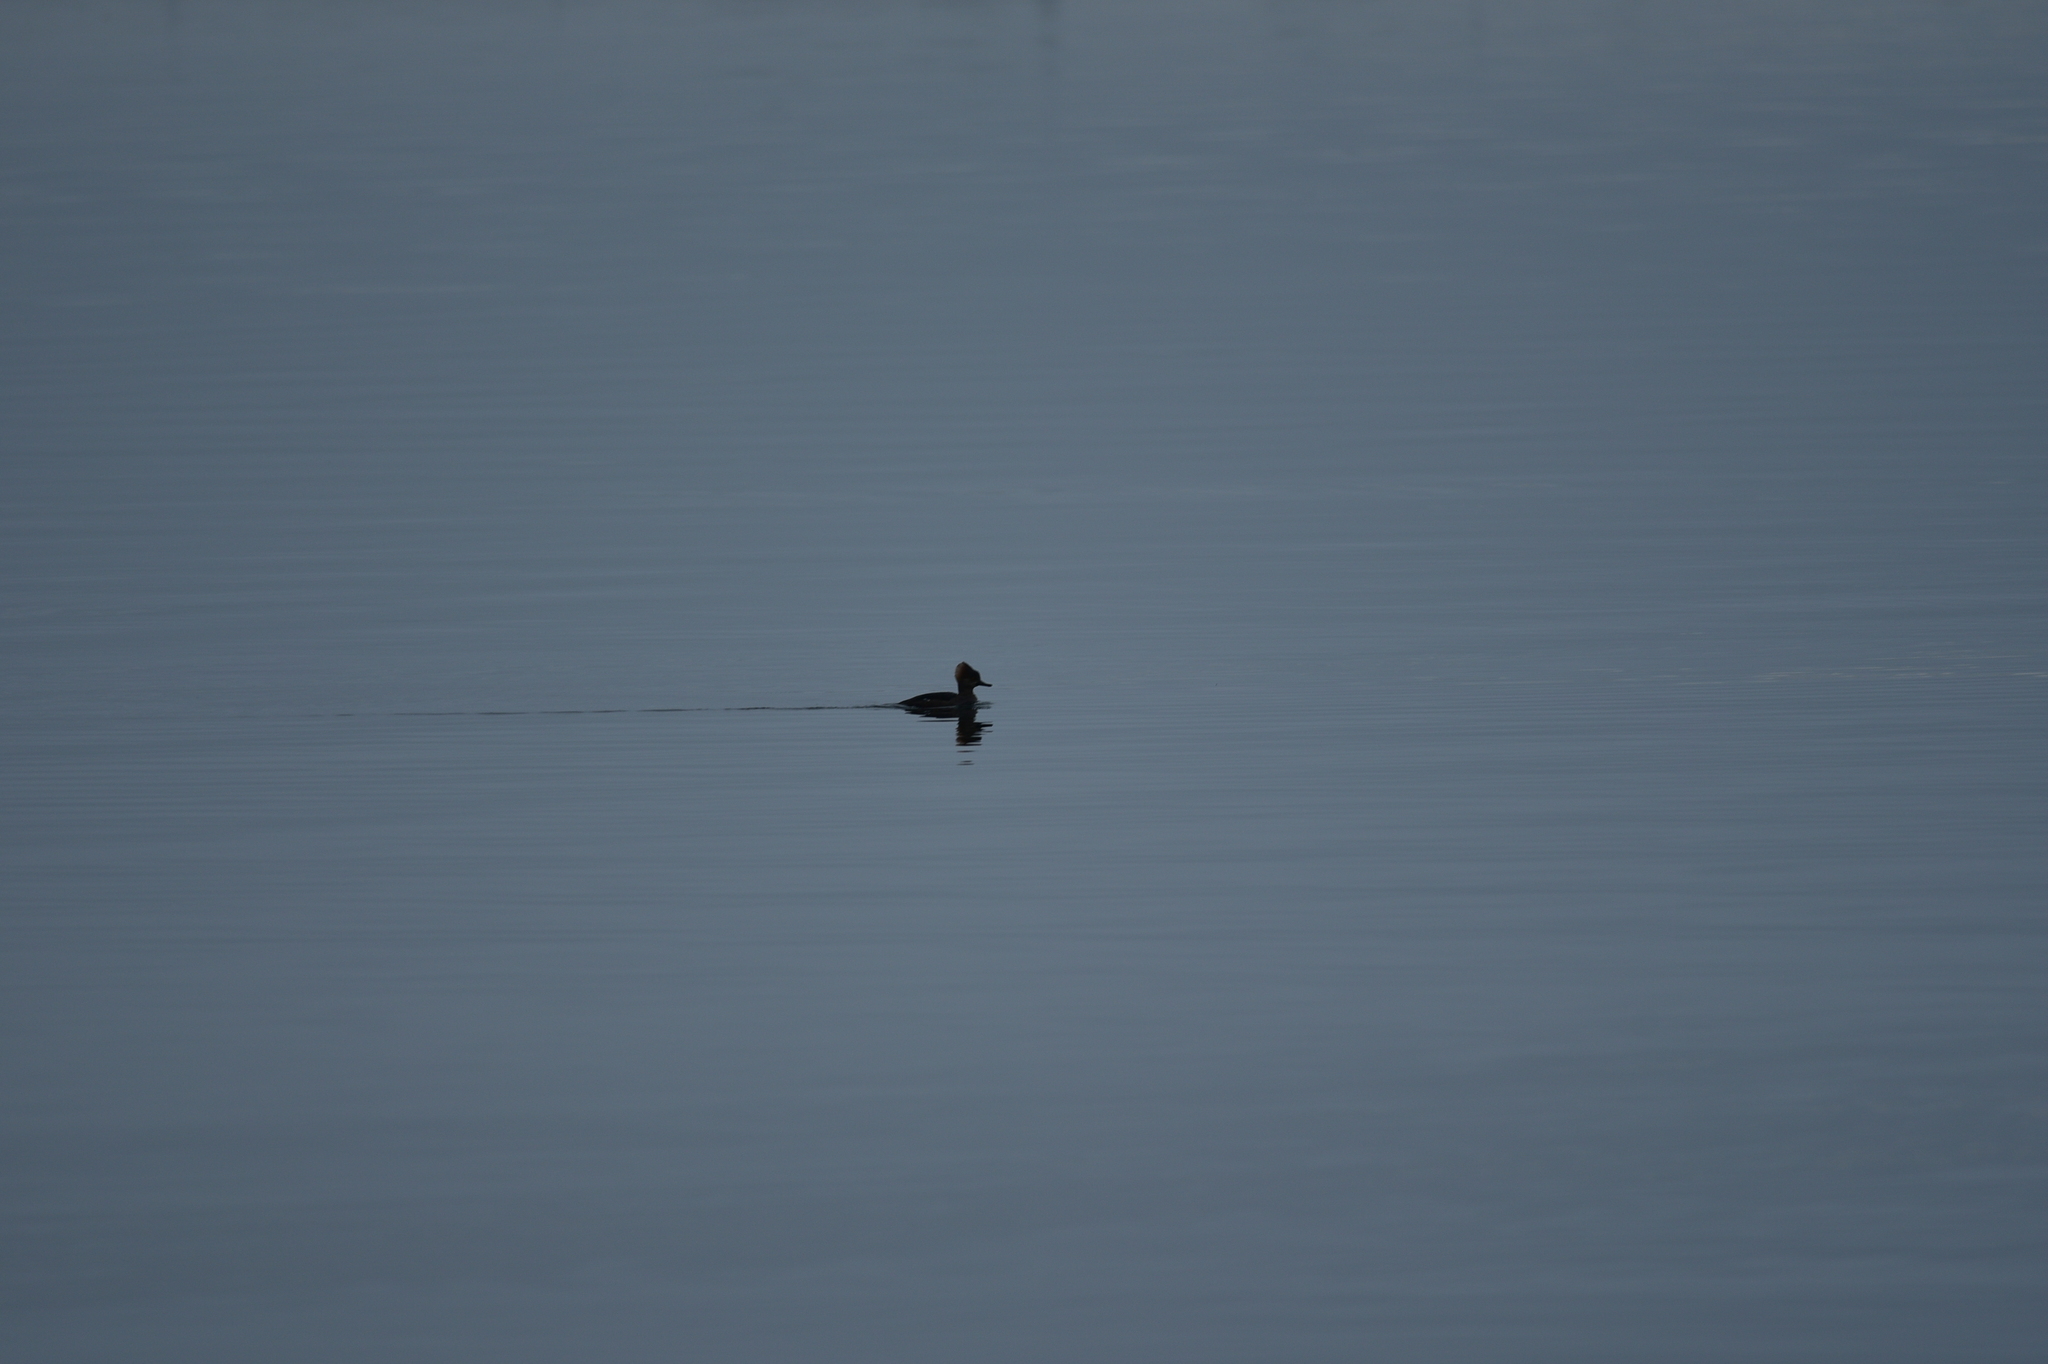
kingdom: Animalia
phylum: Chordata
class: Aves
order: Anseriformes
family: Anatidae
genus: Lophodytes
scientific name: Lophodytes cucullatus
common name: Hooded merganser
